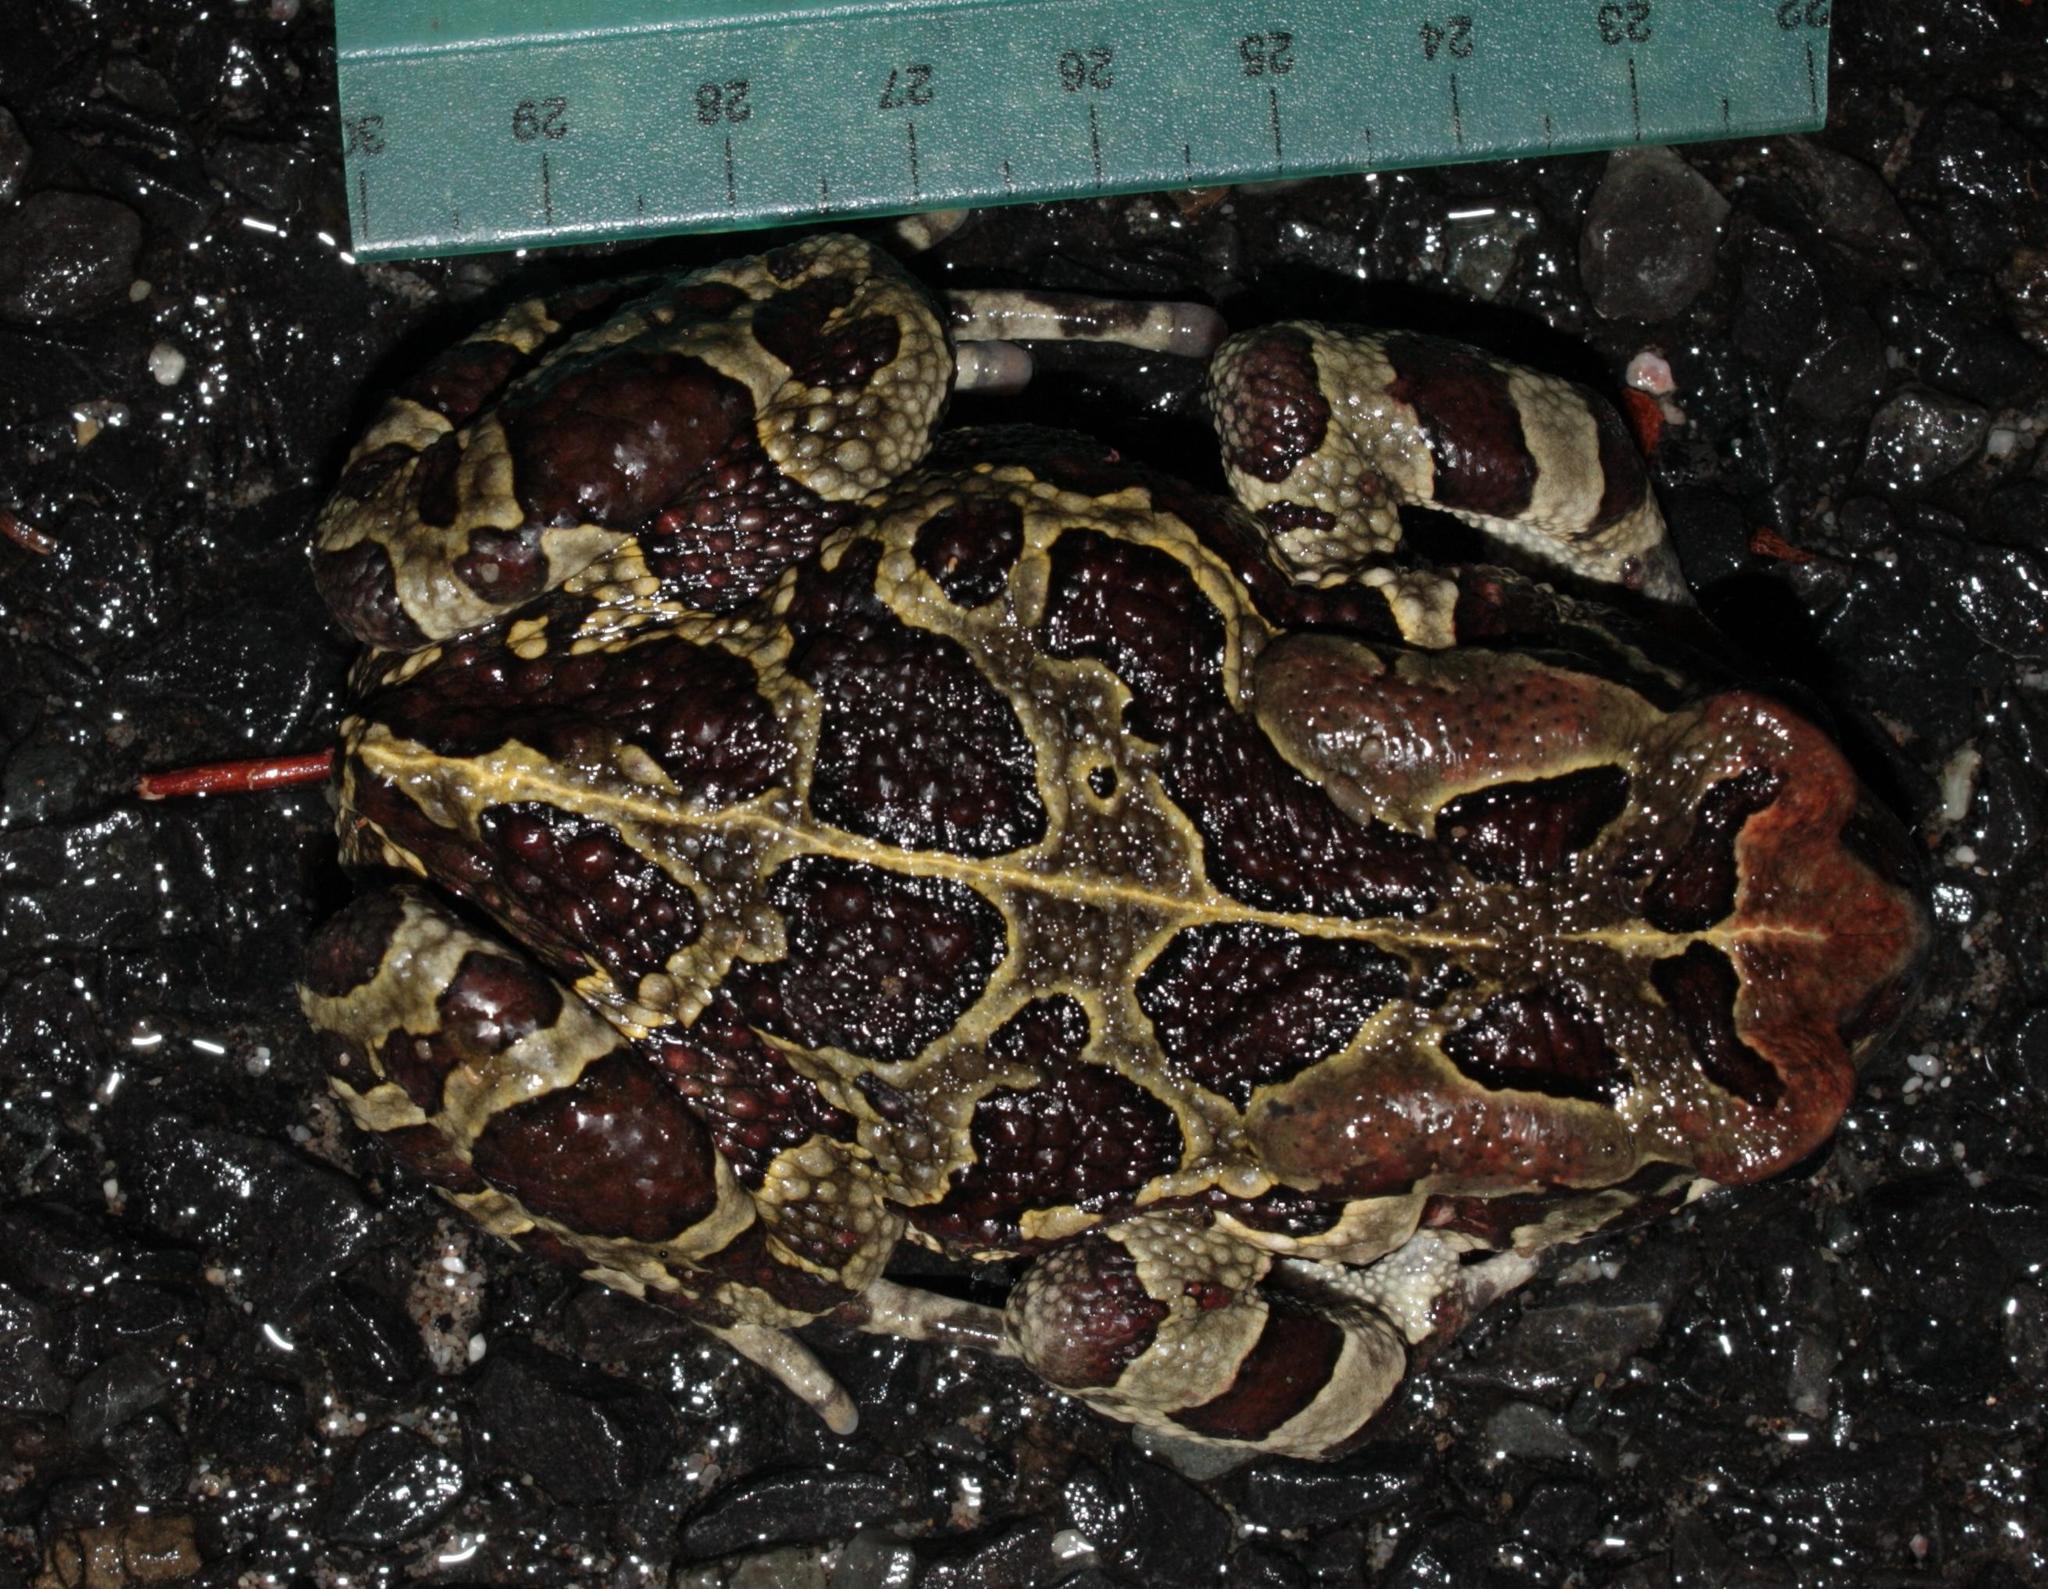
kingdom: Animalia
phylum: Chordata
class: Amphibia
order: Anura
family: Bufonidae
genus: Sclerophrys
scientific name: Sclerophrys pantherina
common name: Panther toad
